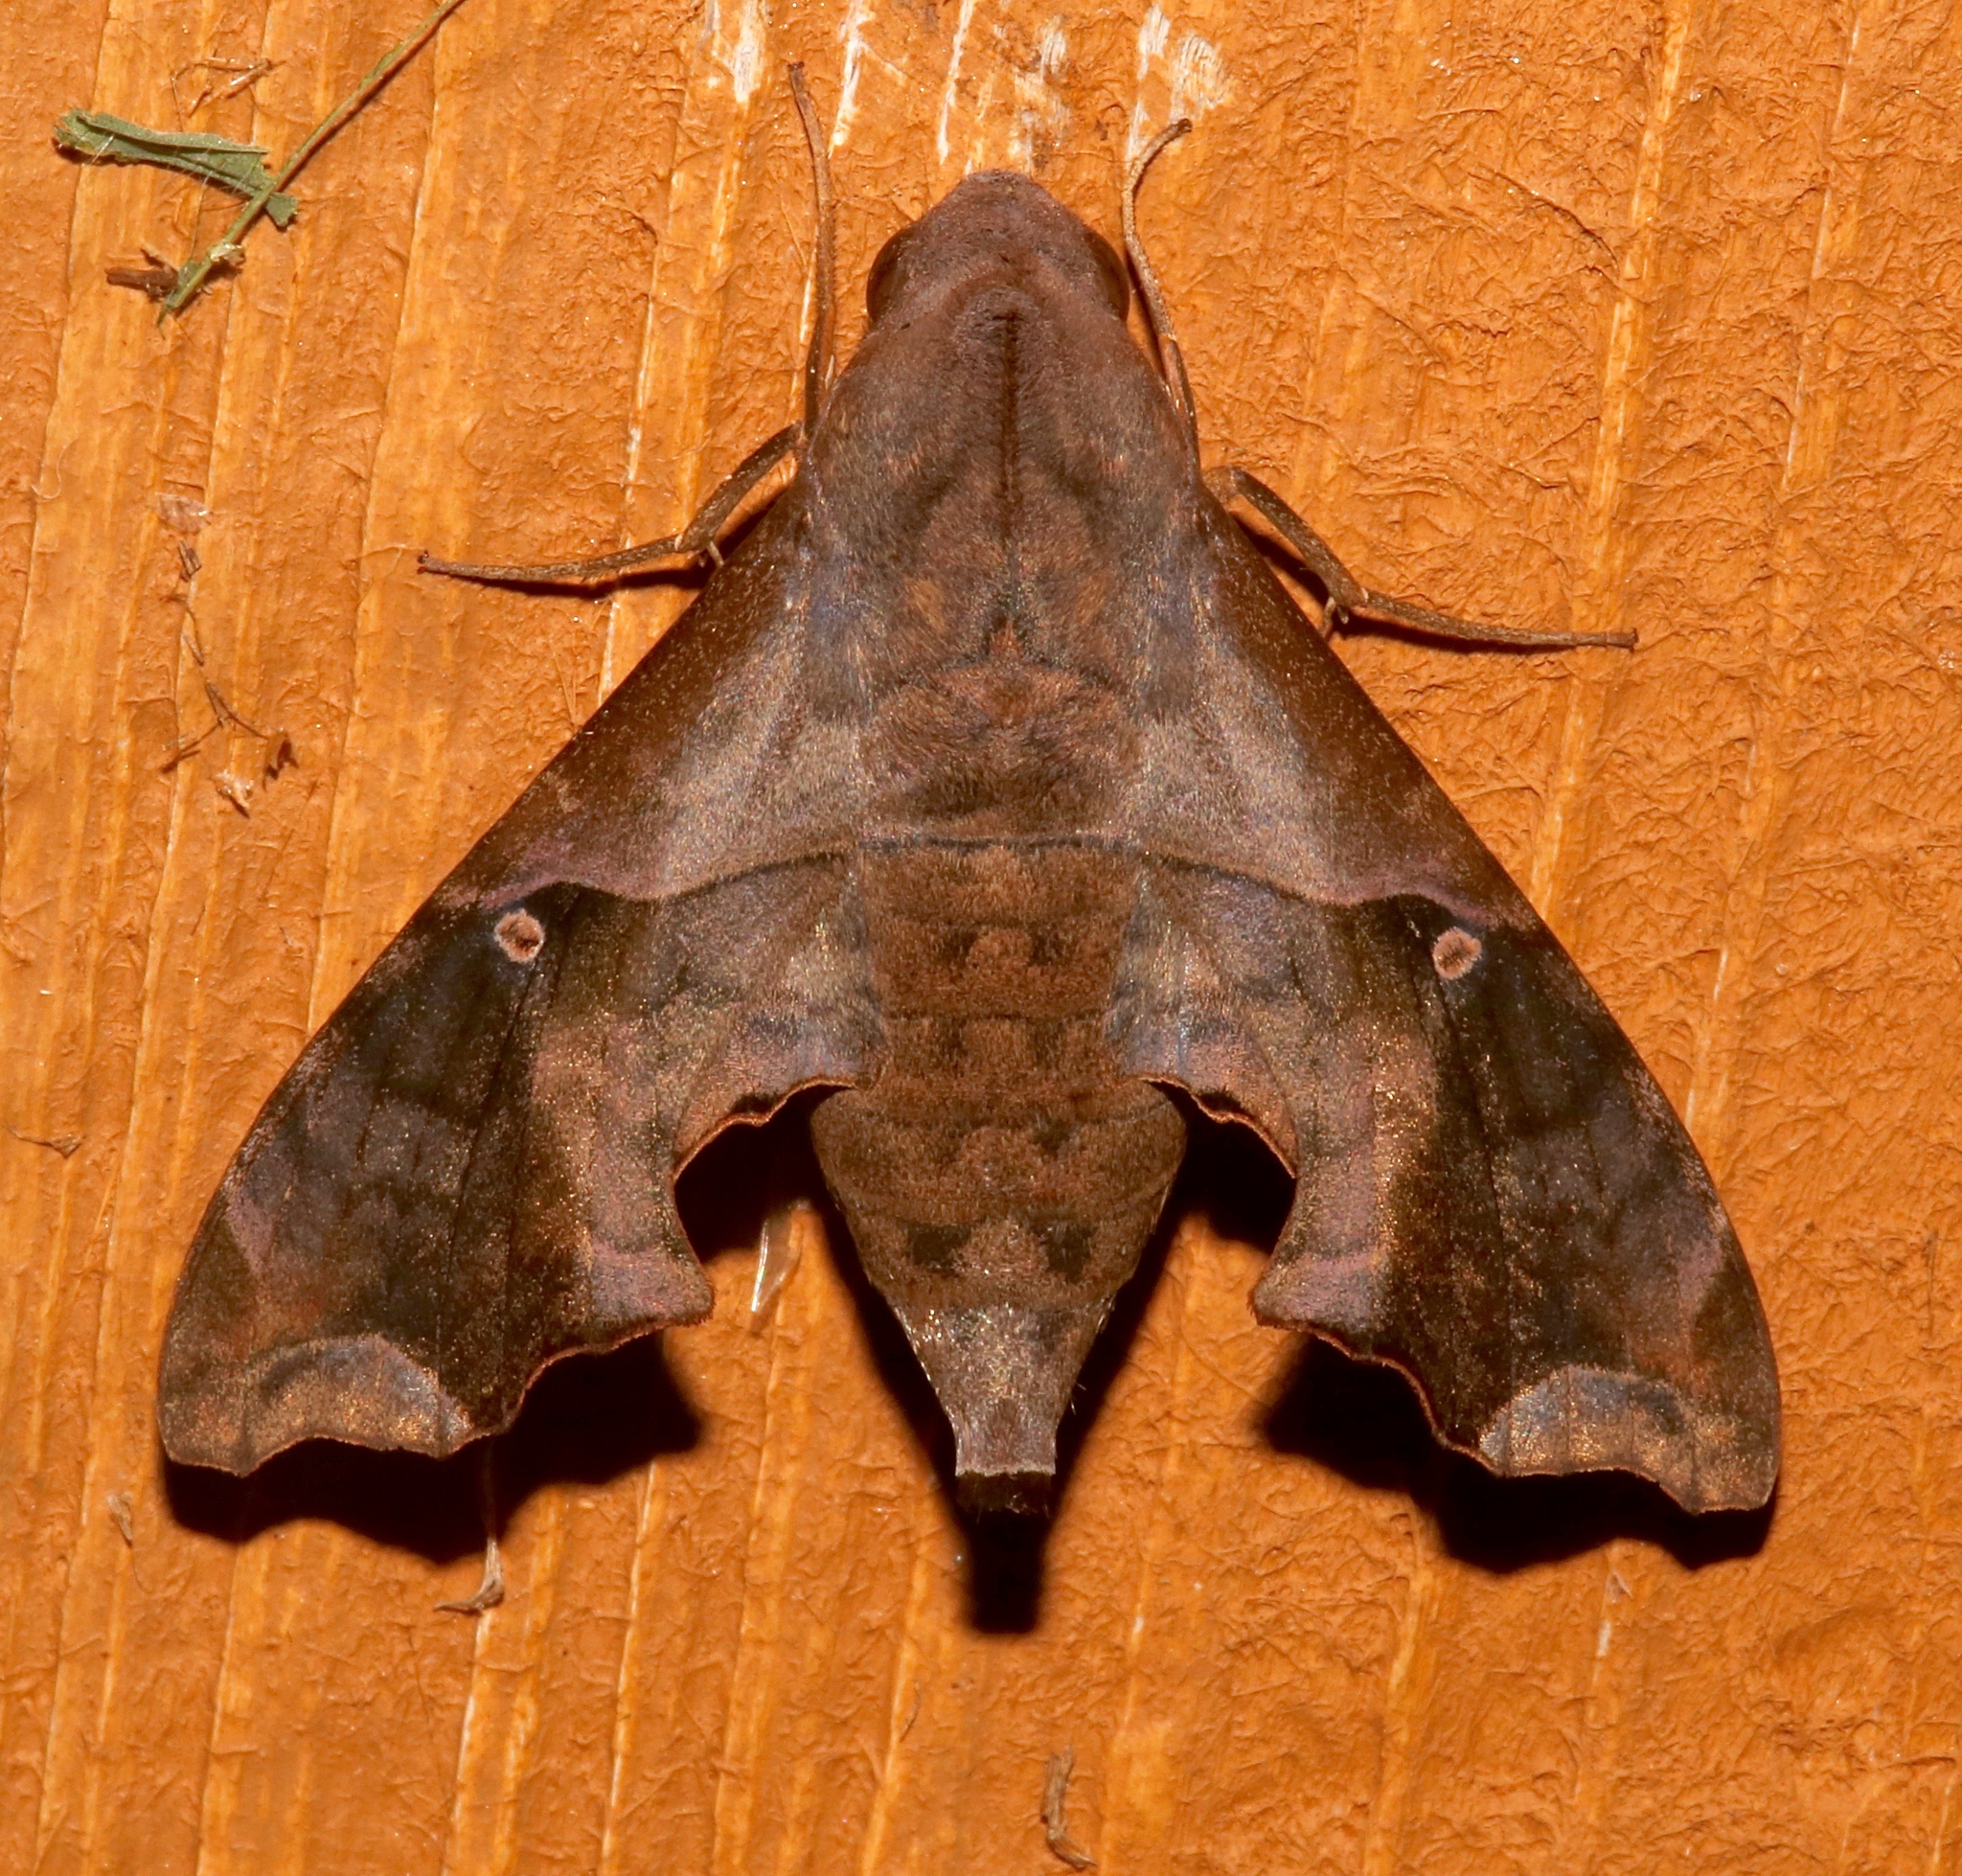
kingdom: Animalia
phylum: Arthropoda
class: Insecta
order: Lepidoptera
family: Sphingidae
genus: Enyo
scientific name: Enyo lugubris
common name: Mournful sphinx
